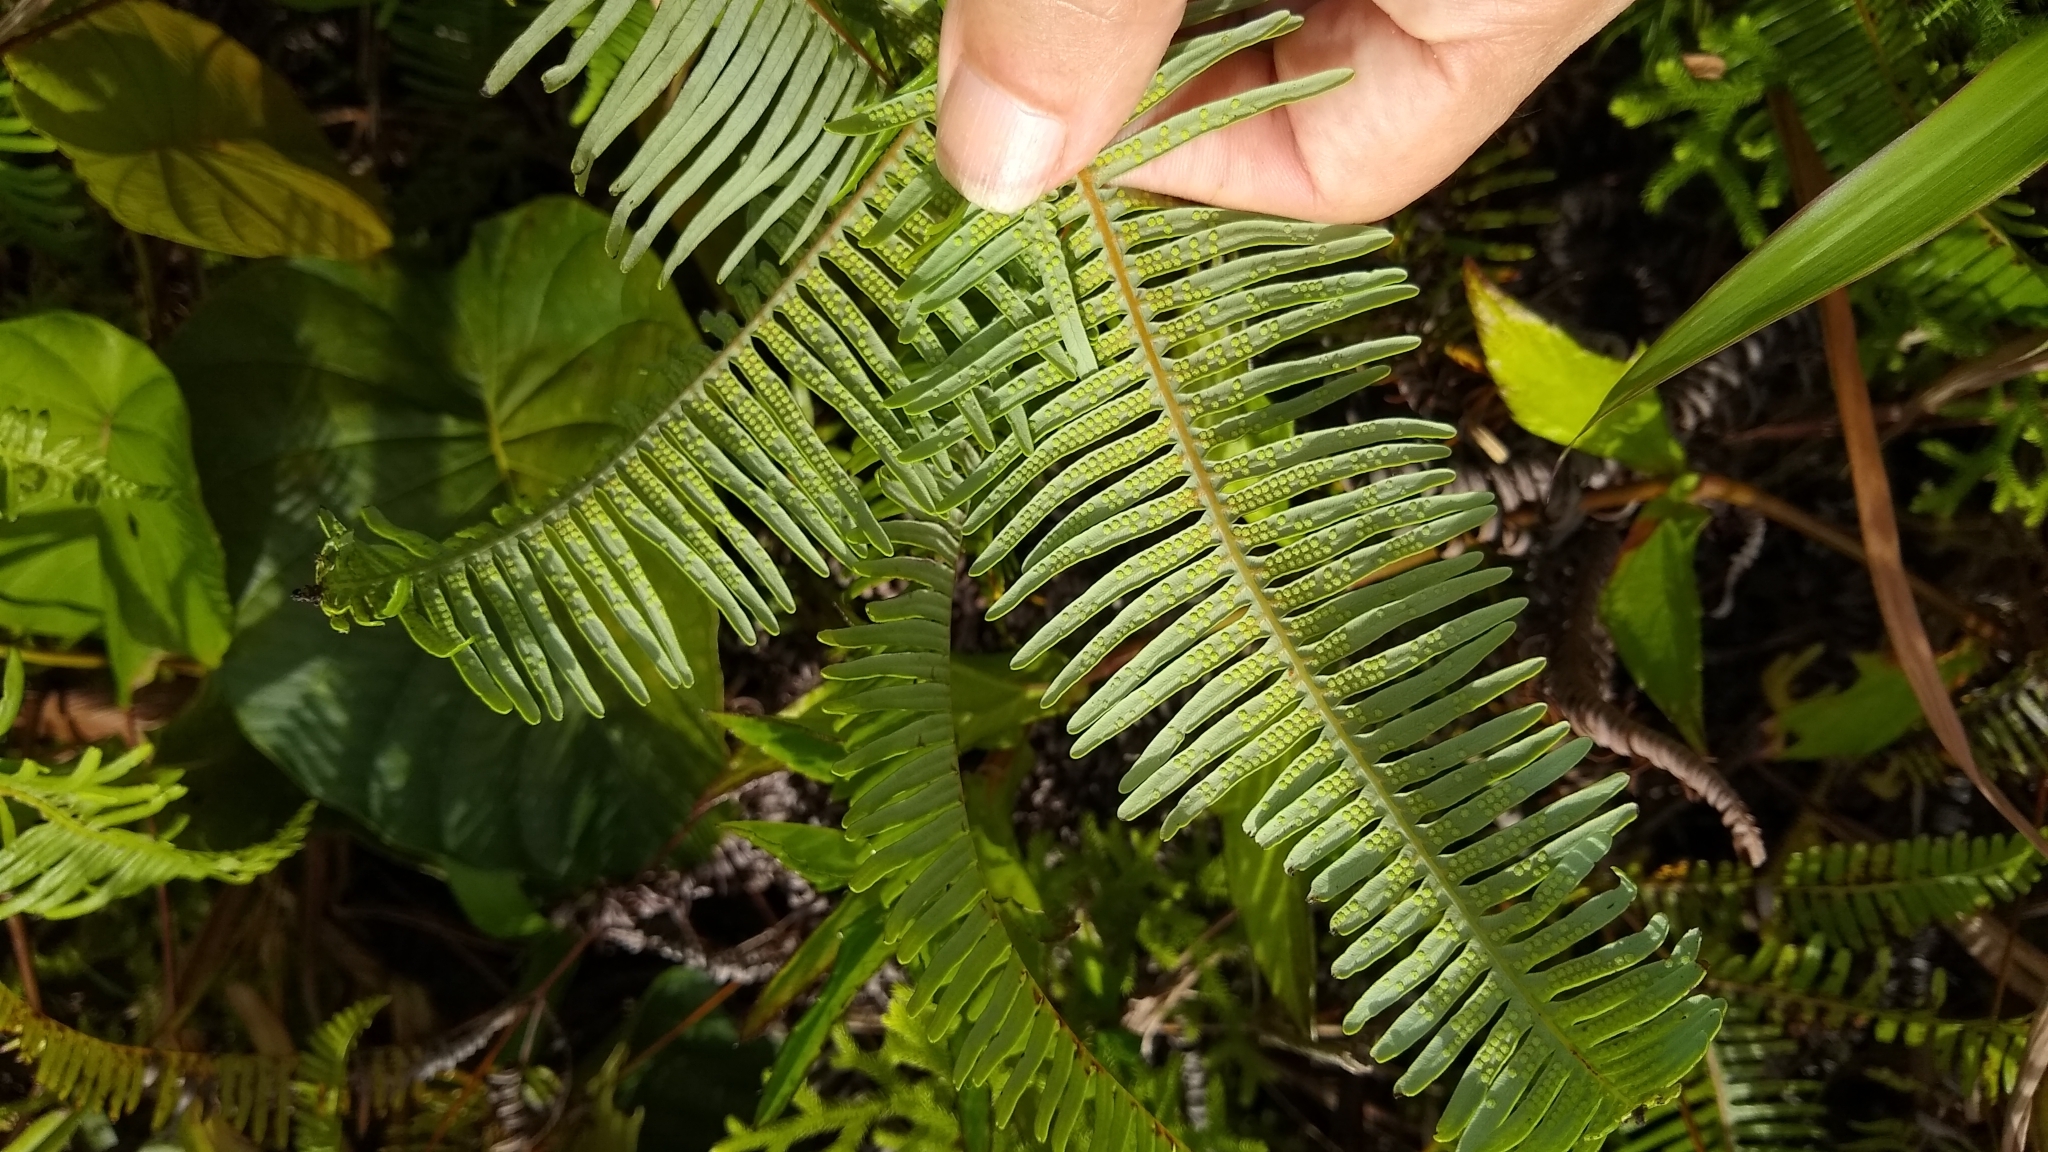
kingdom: Plantae
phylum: Tracheophyta
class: Polypodiopsida
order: Gleicheniales
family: Gleicheniaceae
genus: Dicranopteris
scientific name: Dicranopteris linearis
